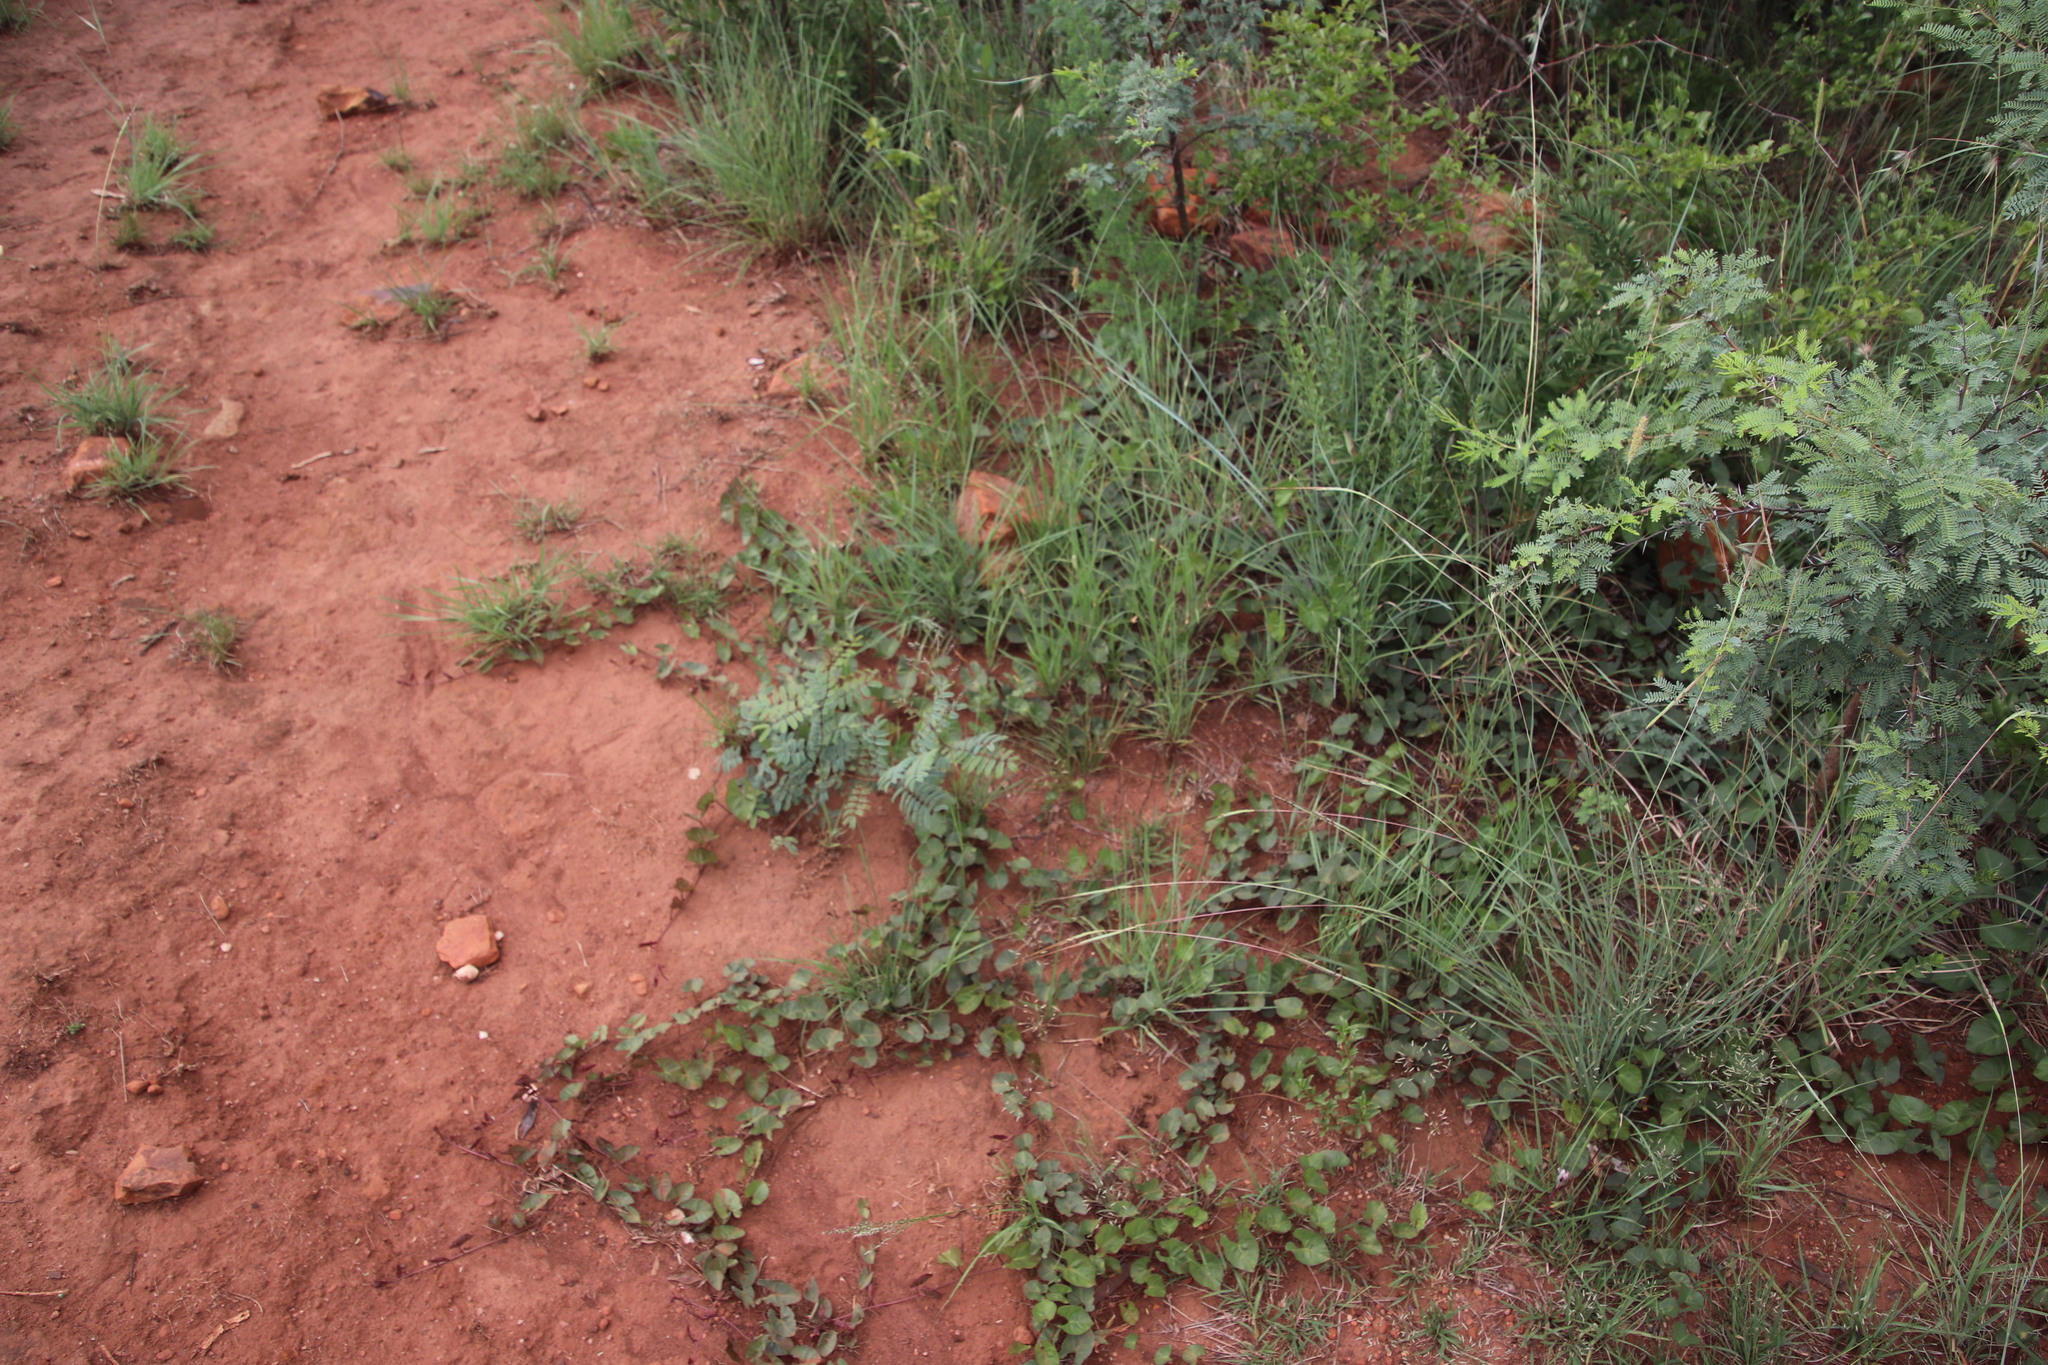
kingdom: Plantae
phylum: Tracheophyta
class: Magnoliopsida
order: Solanales
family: Convolvulaceae
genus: Ipomoea
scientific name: Ipomoea bathycolpos
